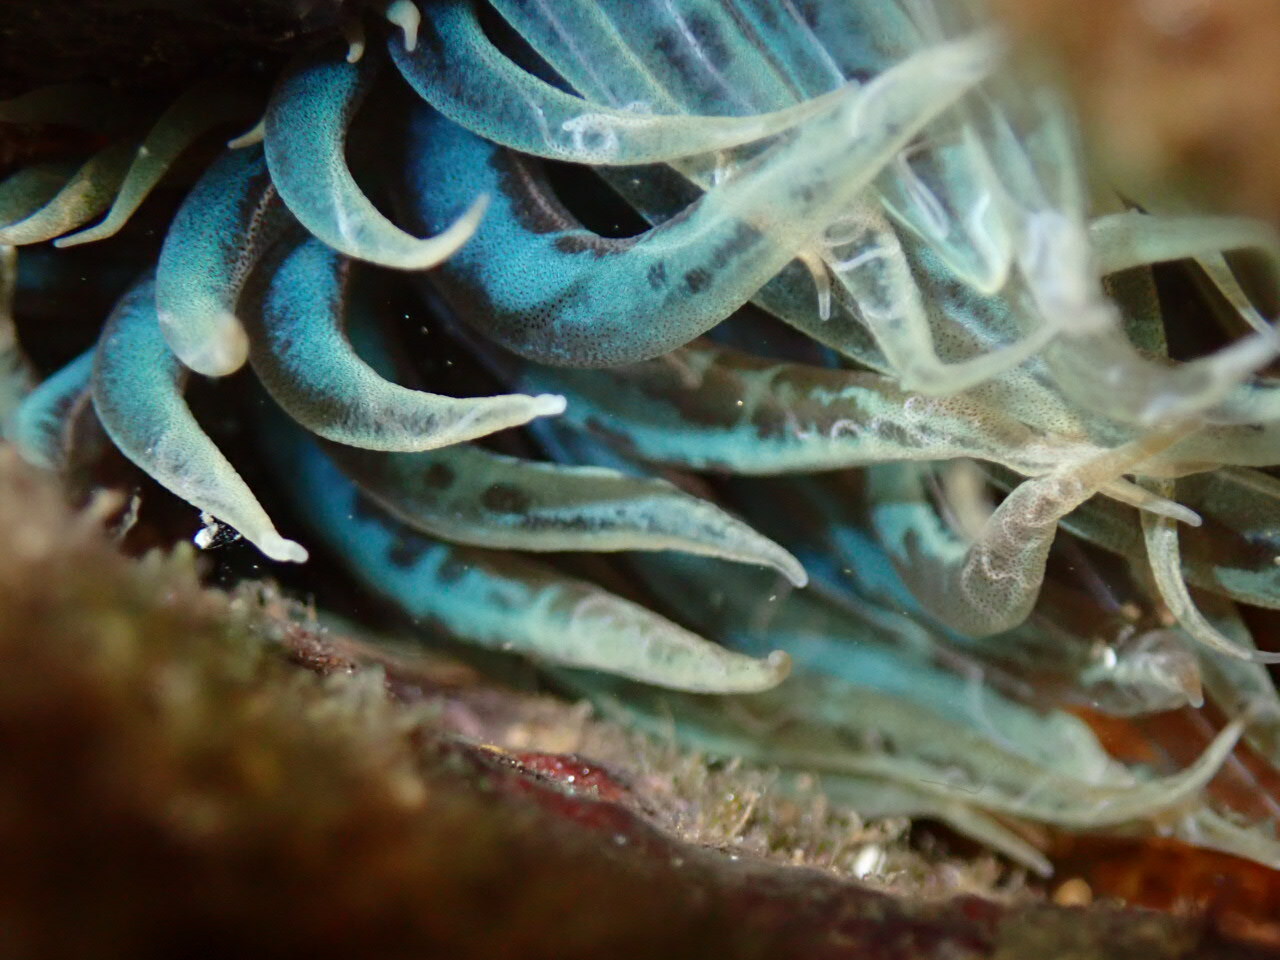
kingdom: Animalia
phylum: Cnidaria
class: Anthozoa
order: Actiniaria
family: Aiptasiidae
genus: Aiptasia
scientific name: Aiptasia mutabilis
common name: Trumpet anemone
